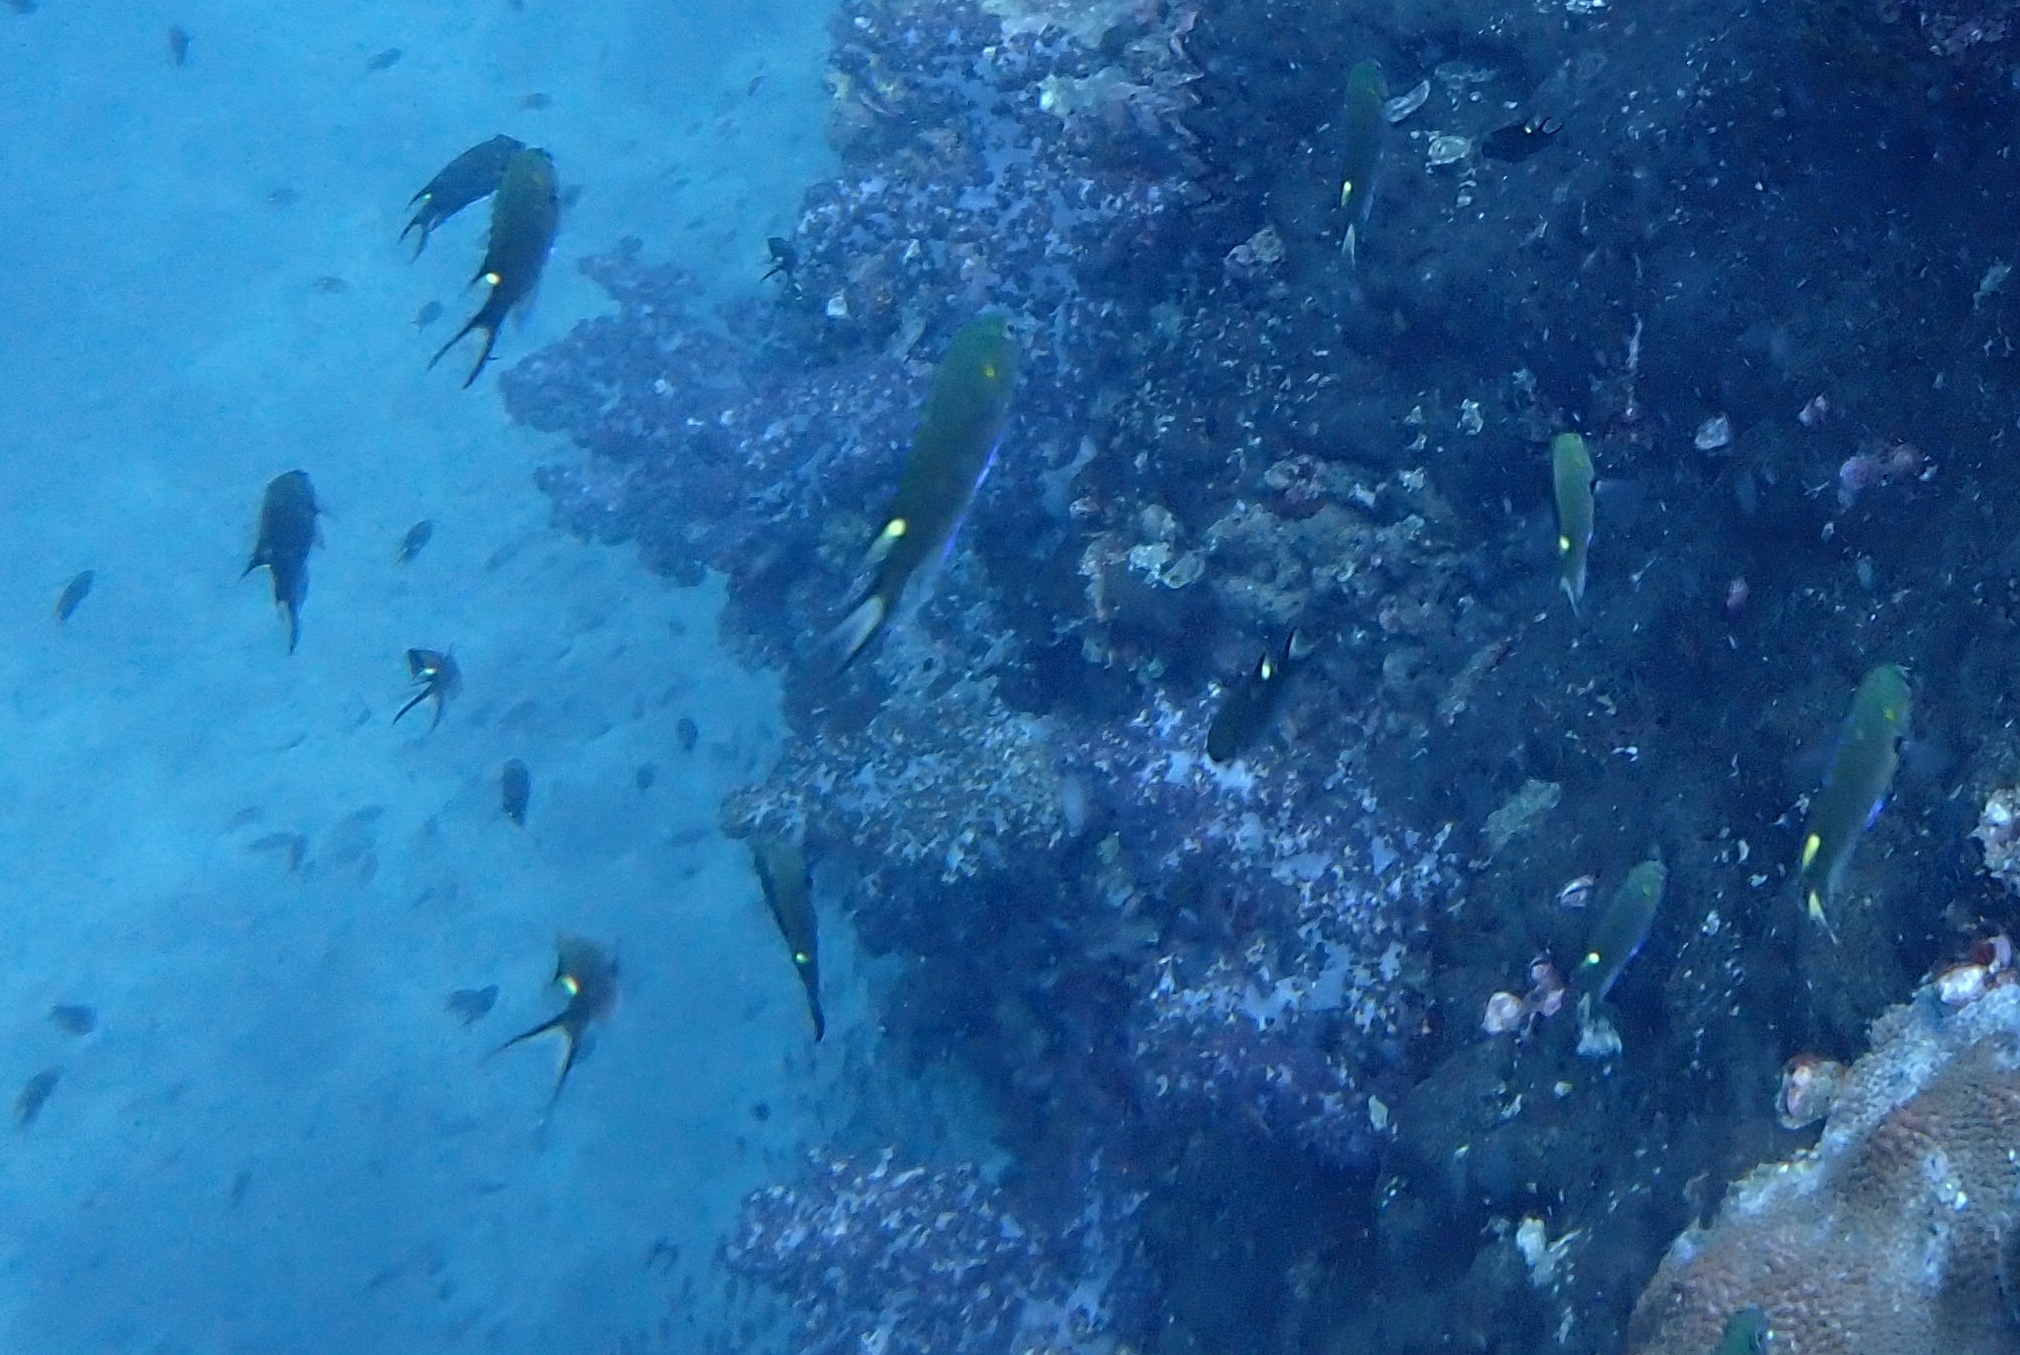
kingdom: Animalia
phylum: Chordata
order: Perciformes
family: Pomacentridae
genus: Neopomacentrus
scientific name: Neopomacentrus cyanomos
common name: Regal demoiselle
